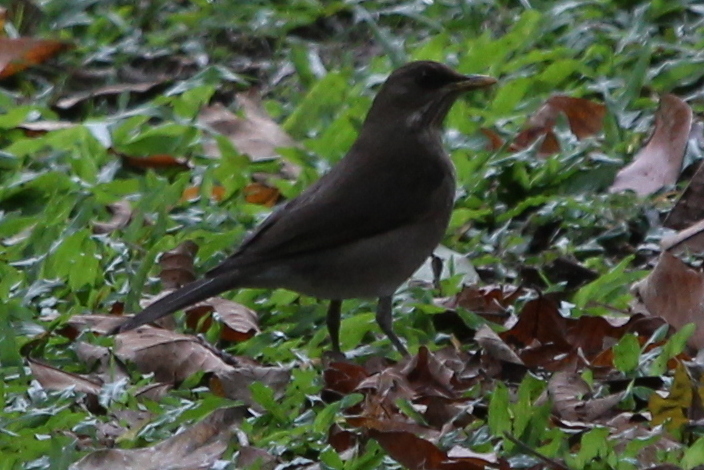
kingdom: Animalia
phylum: Chordata
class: Aves
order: Passeriformes
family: Turdidae
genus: Turdus
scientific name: Turdus amaurochalinus
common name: Creamy-bellied thrush
